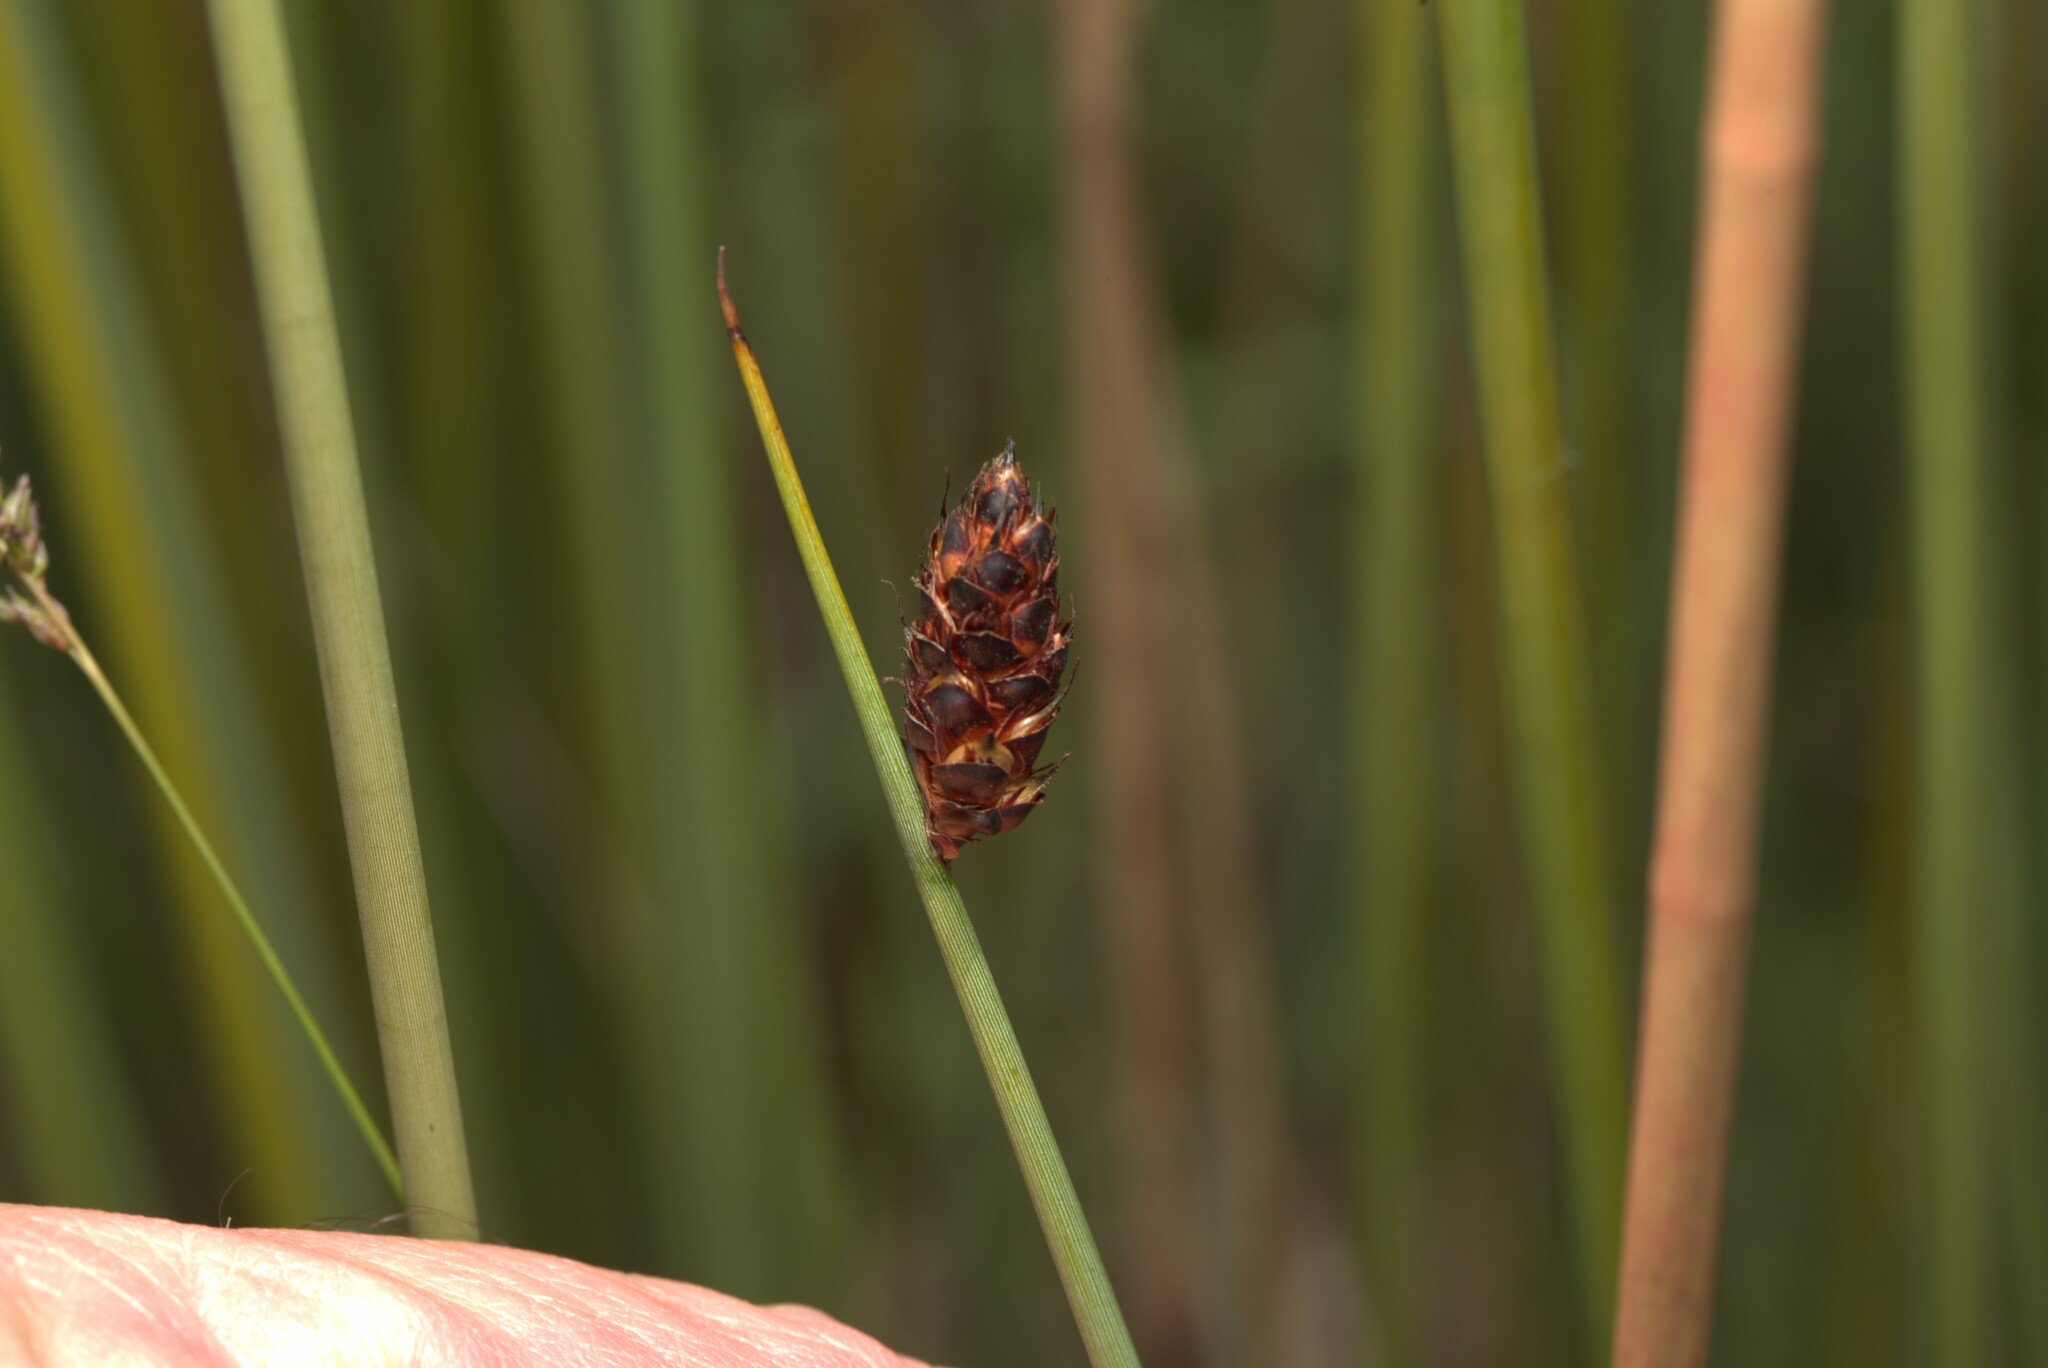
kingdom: Plantae
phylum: Tracheophyta
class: Liliopsida
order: Poales
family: Cyperaceae
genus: Lepironia
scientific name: Lepironia articulata
